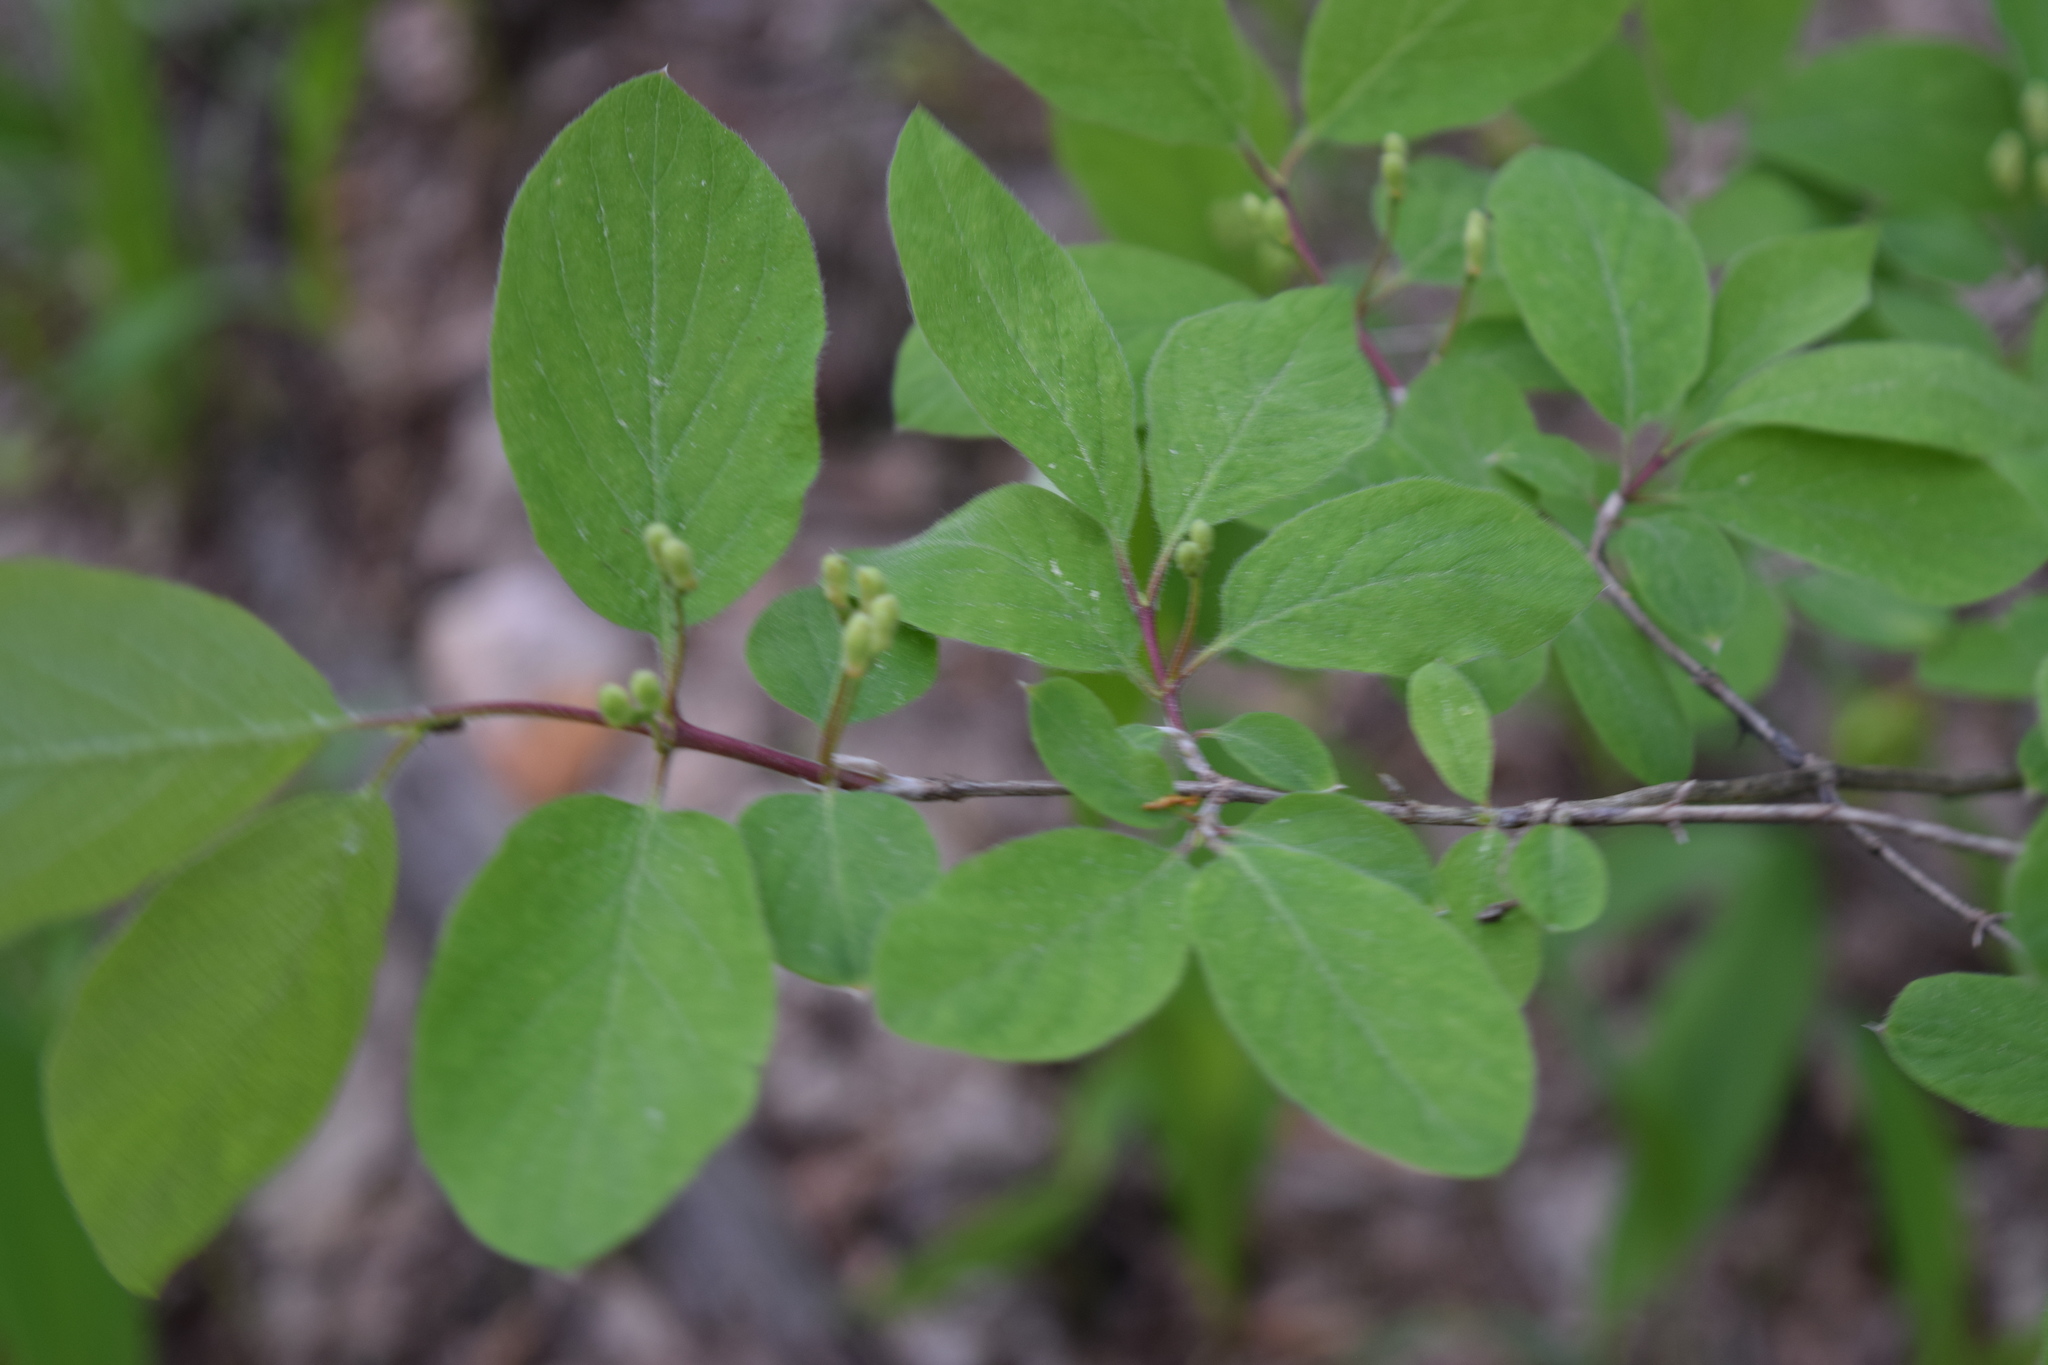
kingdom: Plantae
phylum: Tracheophyta
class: Magnoliopsida
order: Dipsacales
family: Caprifoliaceae
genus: Lonicera
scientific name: Lonicera xylosteum
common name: Fly honeysuckle
